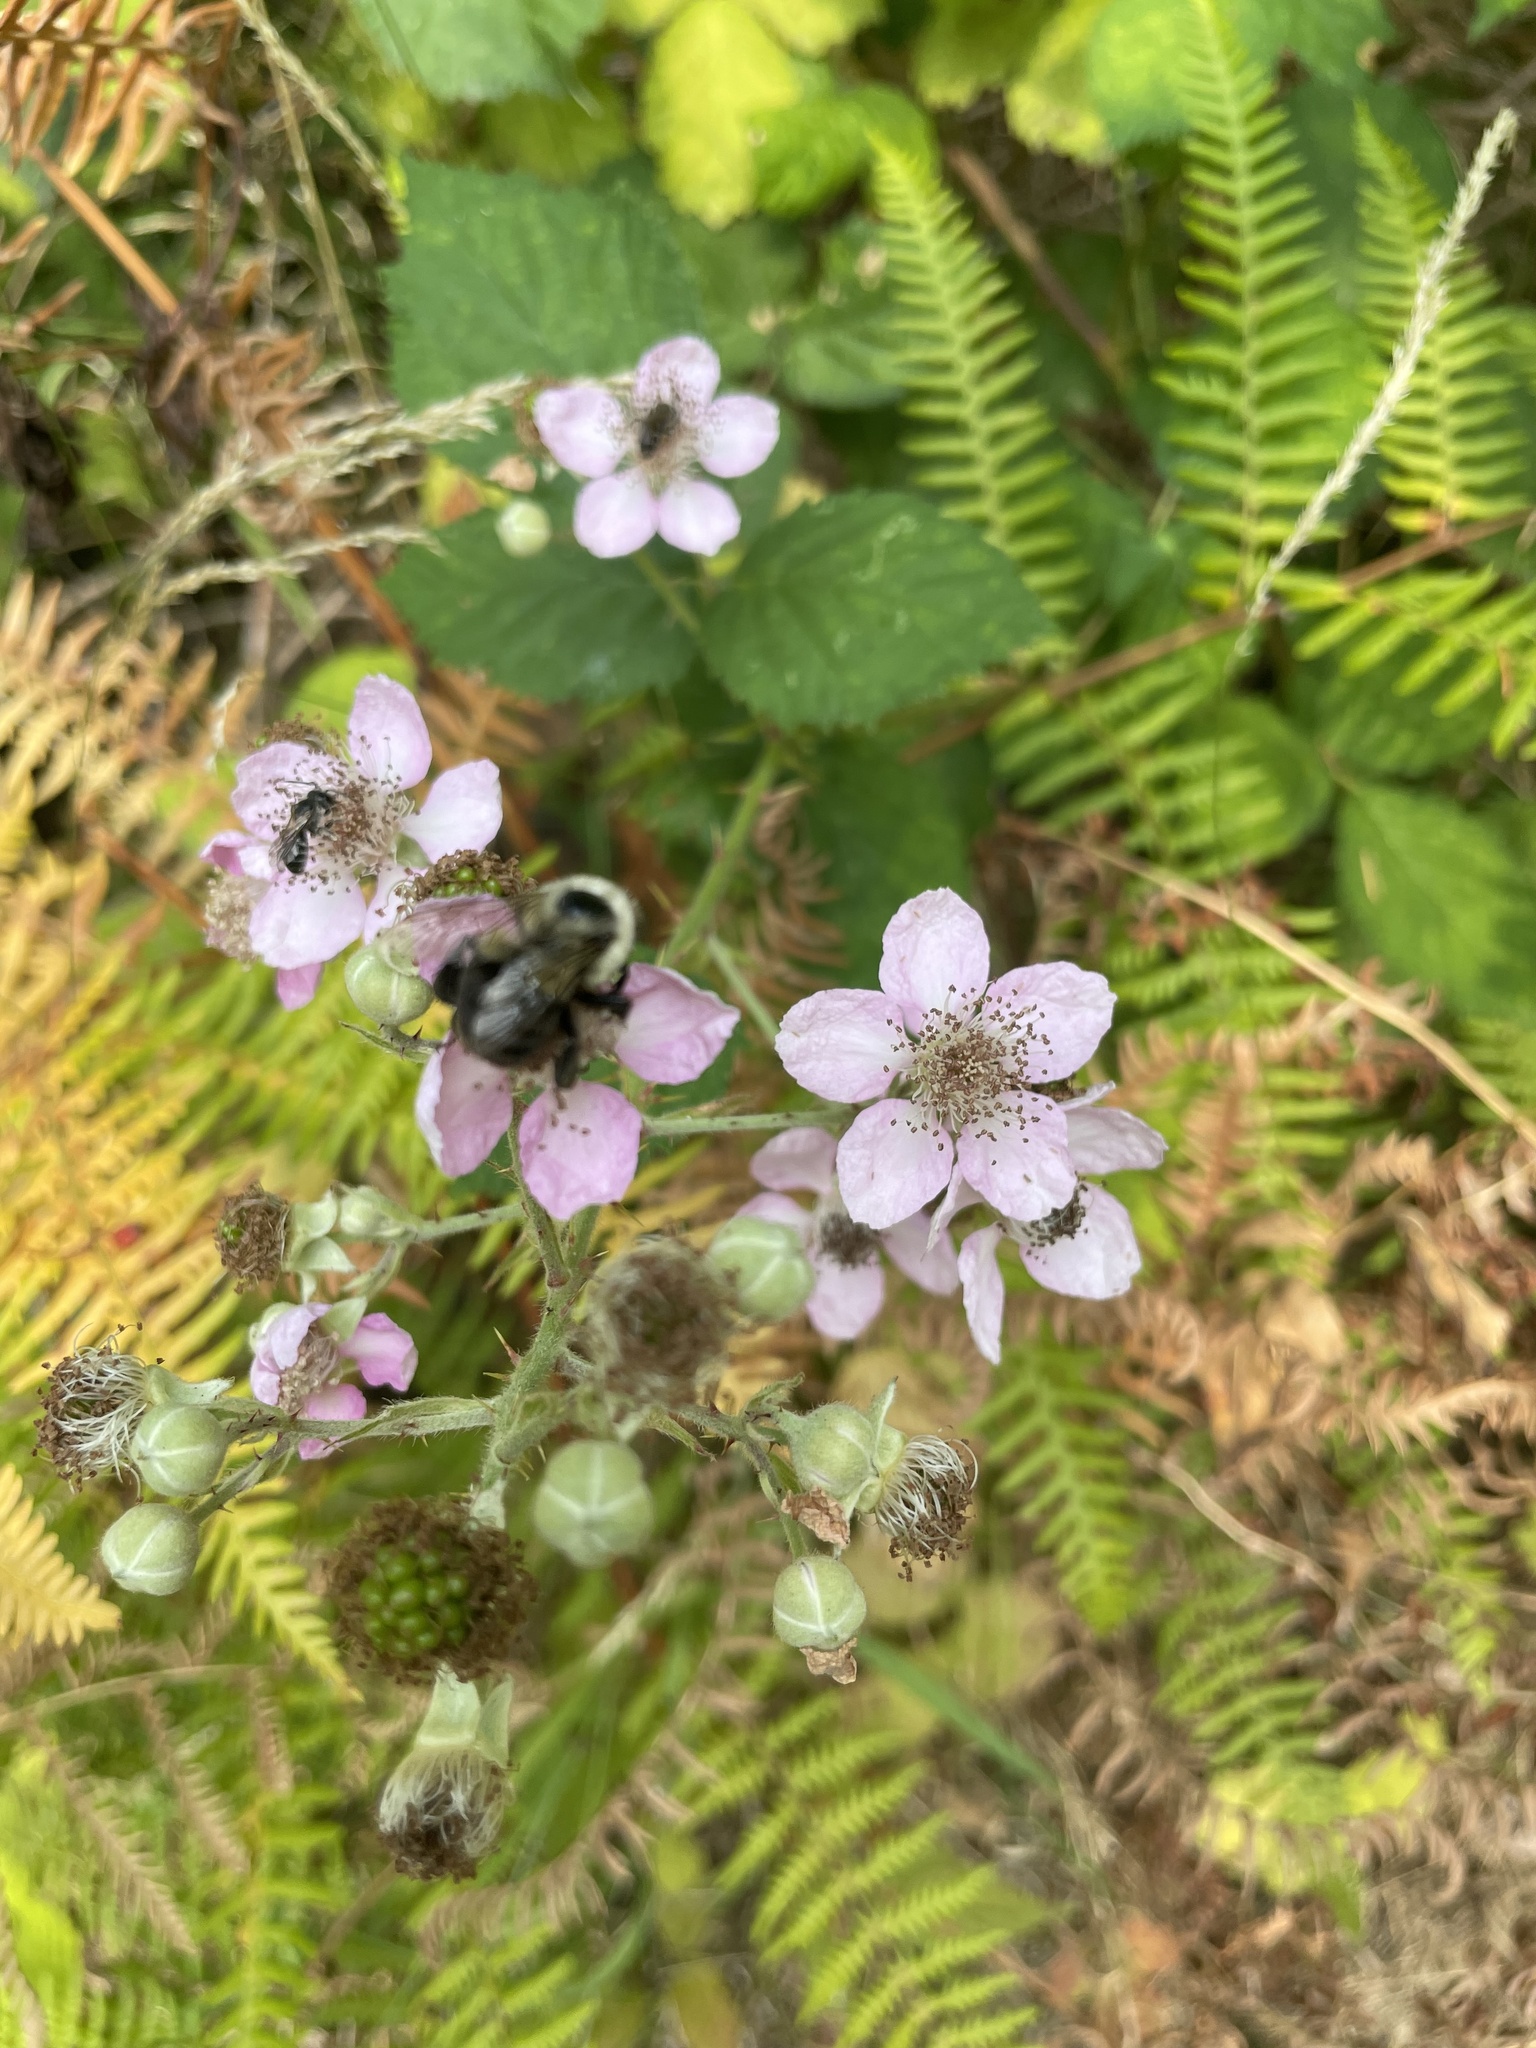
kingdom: Animalia
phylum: Arthropoda
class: Insecta
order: Hymenoptera
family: Apidae
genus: Bombus
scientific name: Bombus impatiens
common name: Common eastern bumble bee
